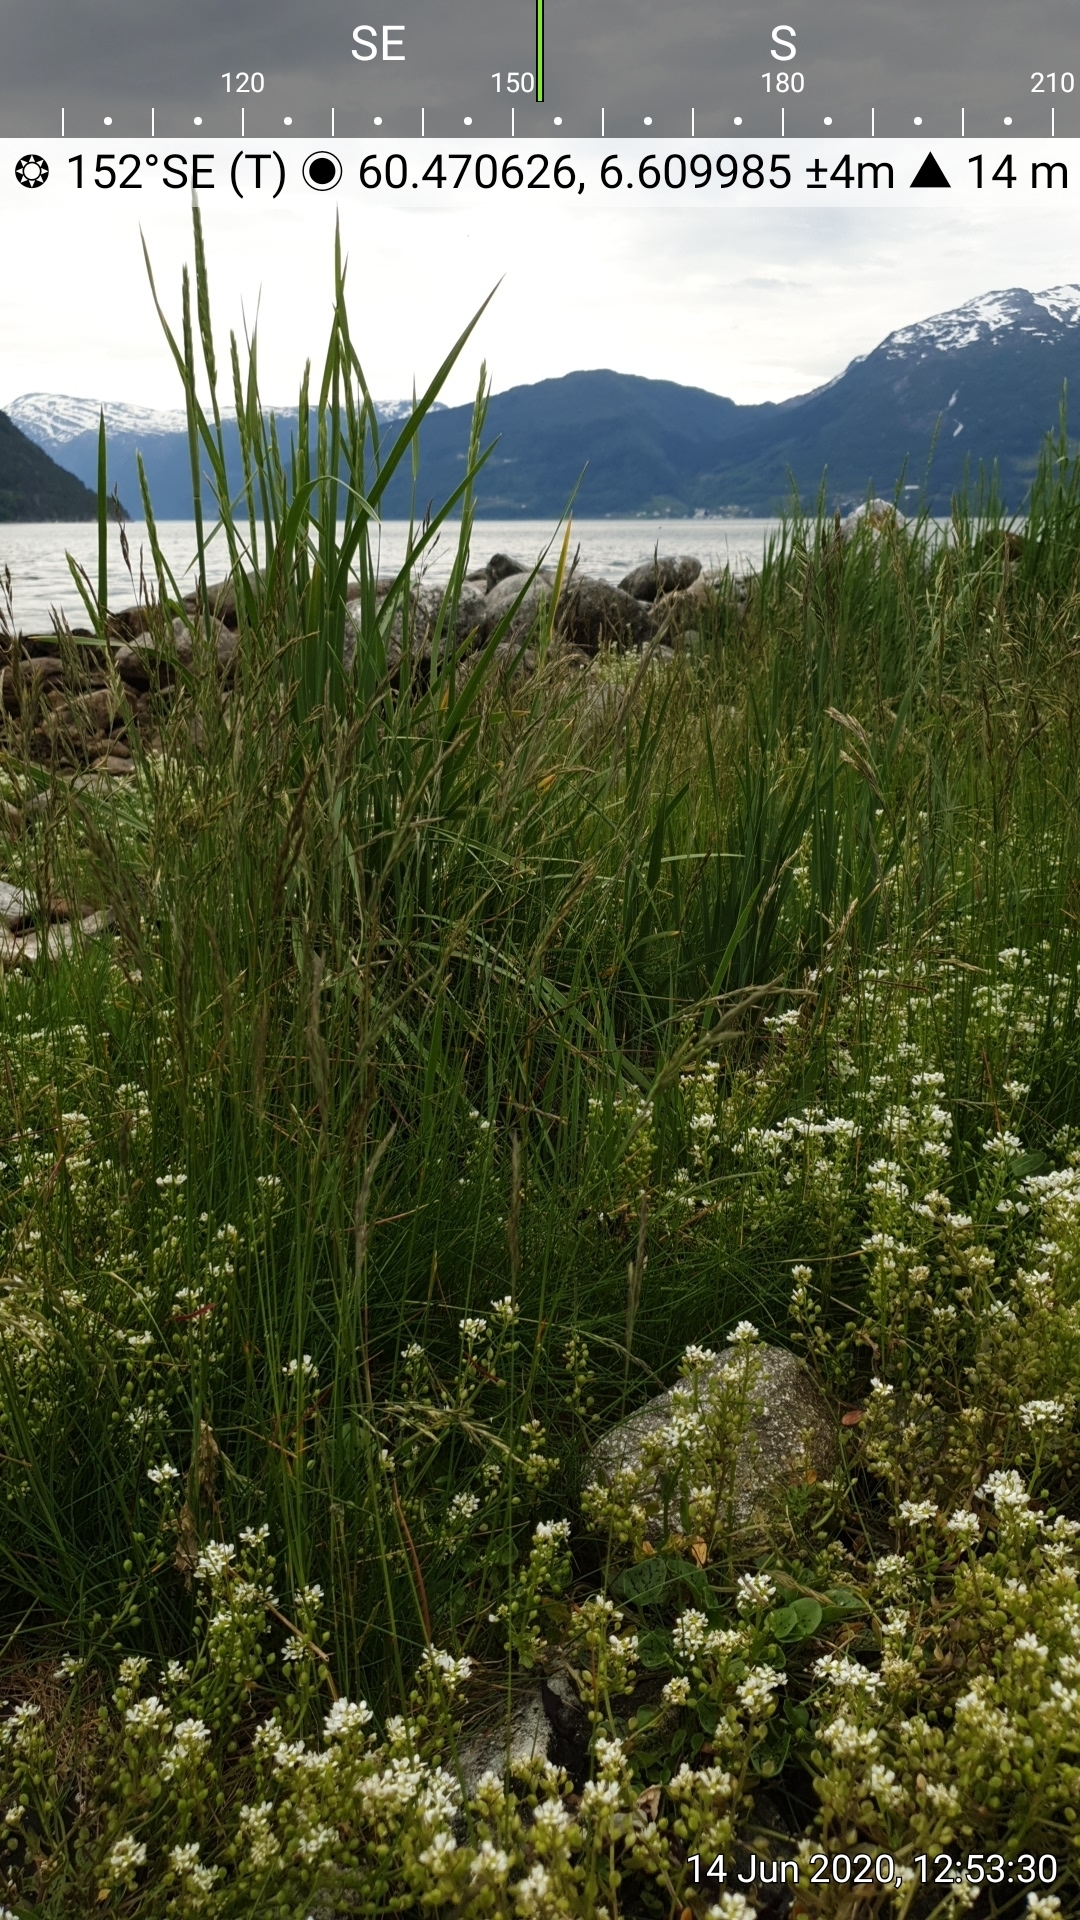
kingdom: Plantae
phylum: Tracheophyta
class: Magnoliopsida
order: Brassicales
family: Brassicaceae
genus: Cochlearia
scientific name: Cochlearia officinalis
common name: Scurvy-grass
